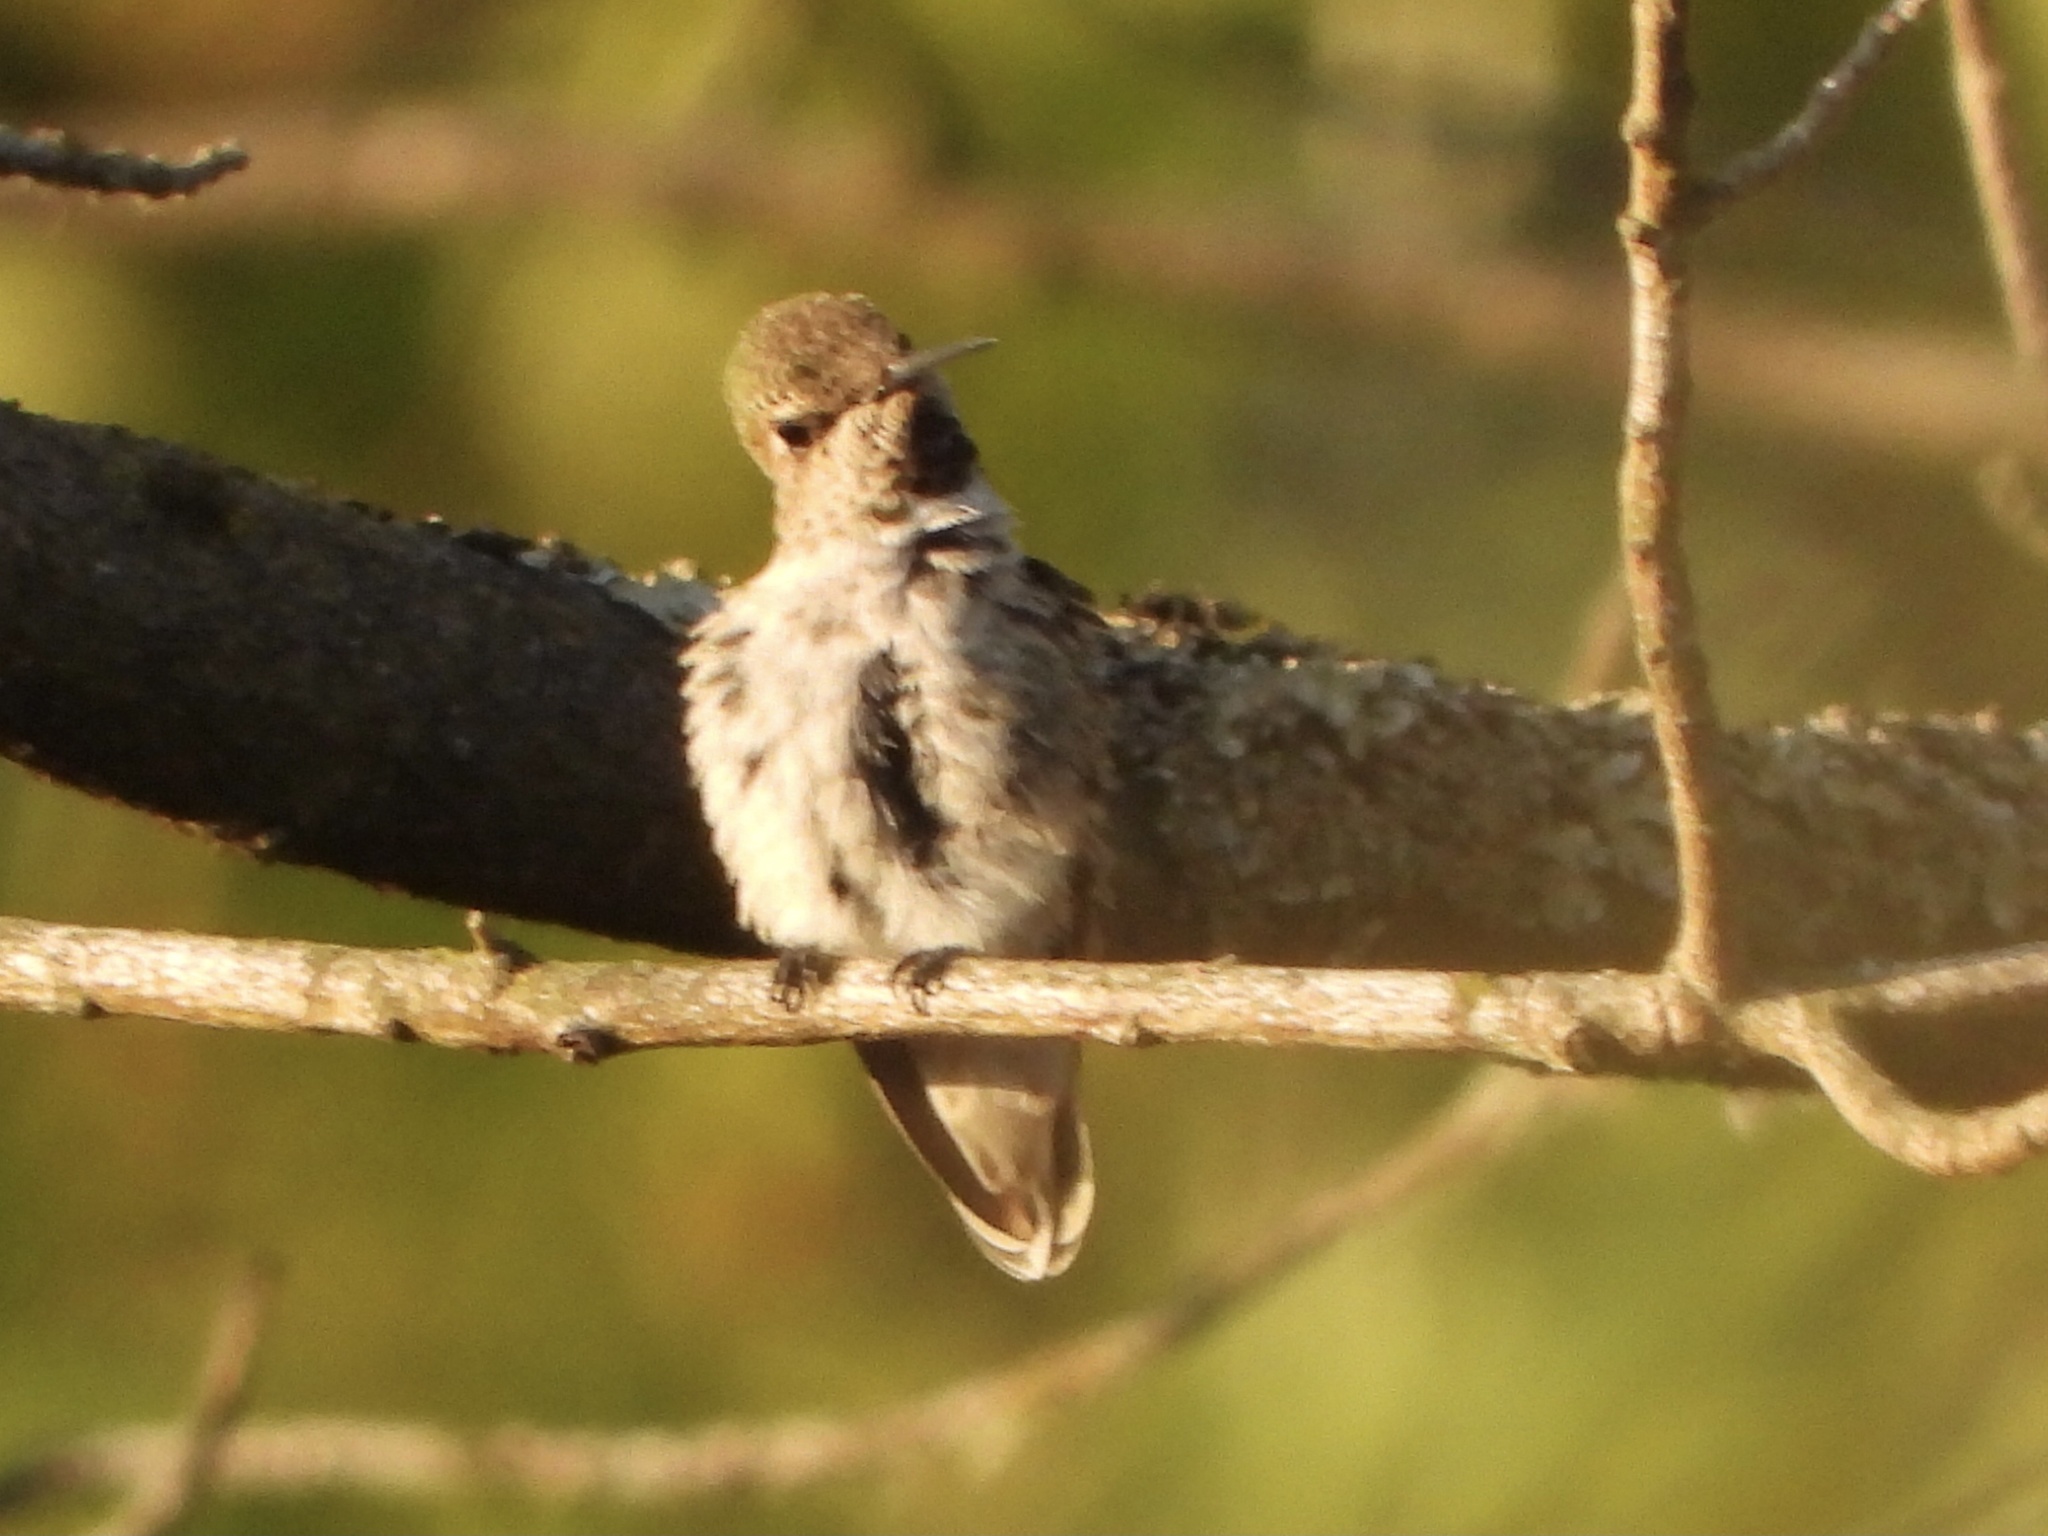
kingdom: Animalia
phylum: Chordata
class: Aves
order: Apodiformes
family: Trochilidae
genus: Calypte
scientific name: Calypte anna
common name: Anna's hummingbird
